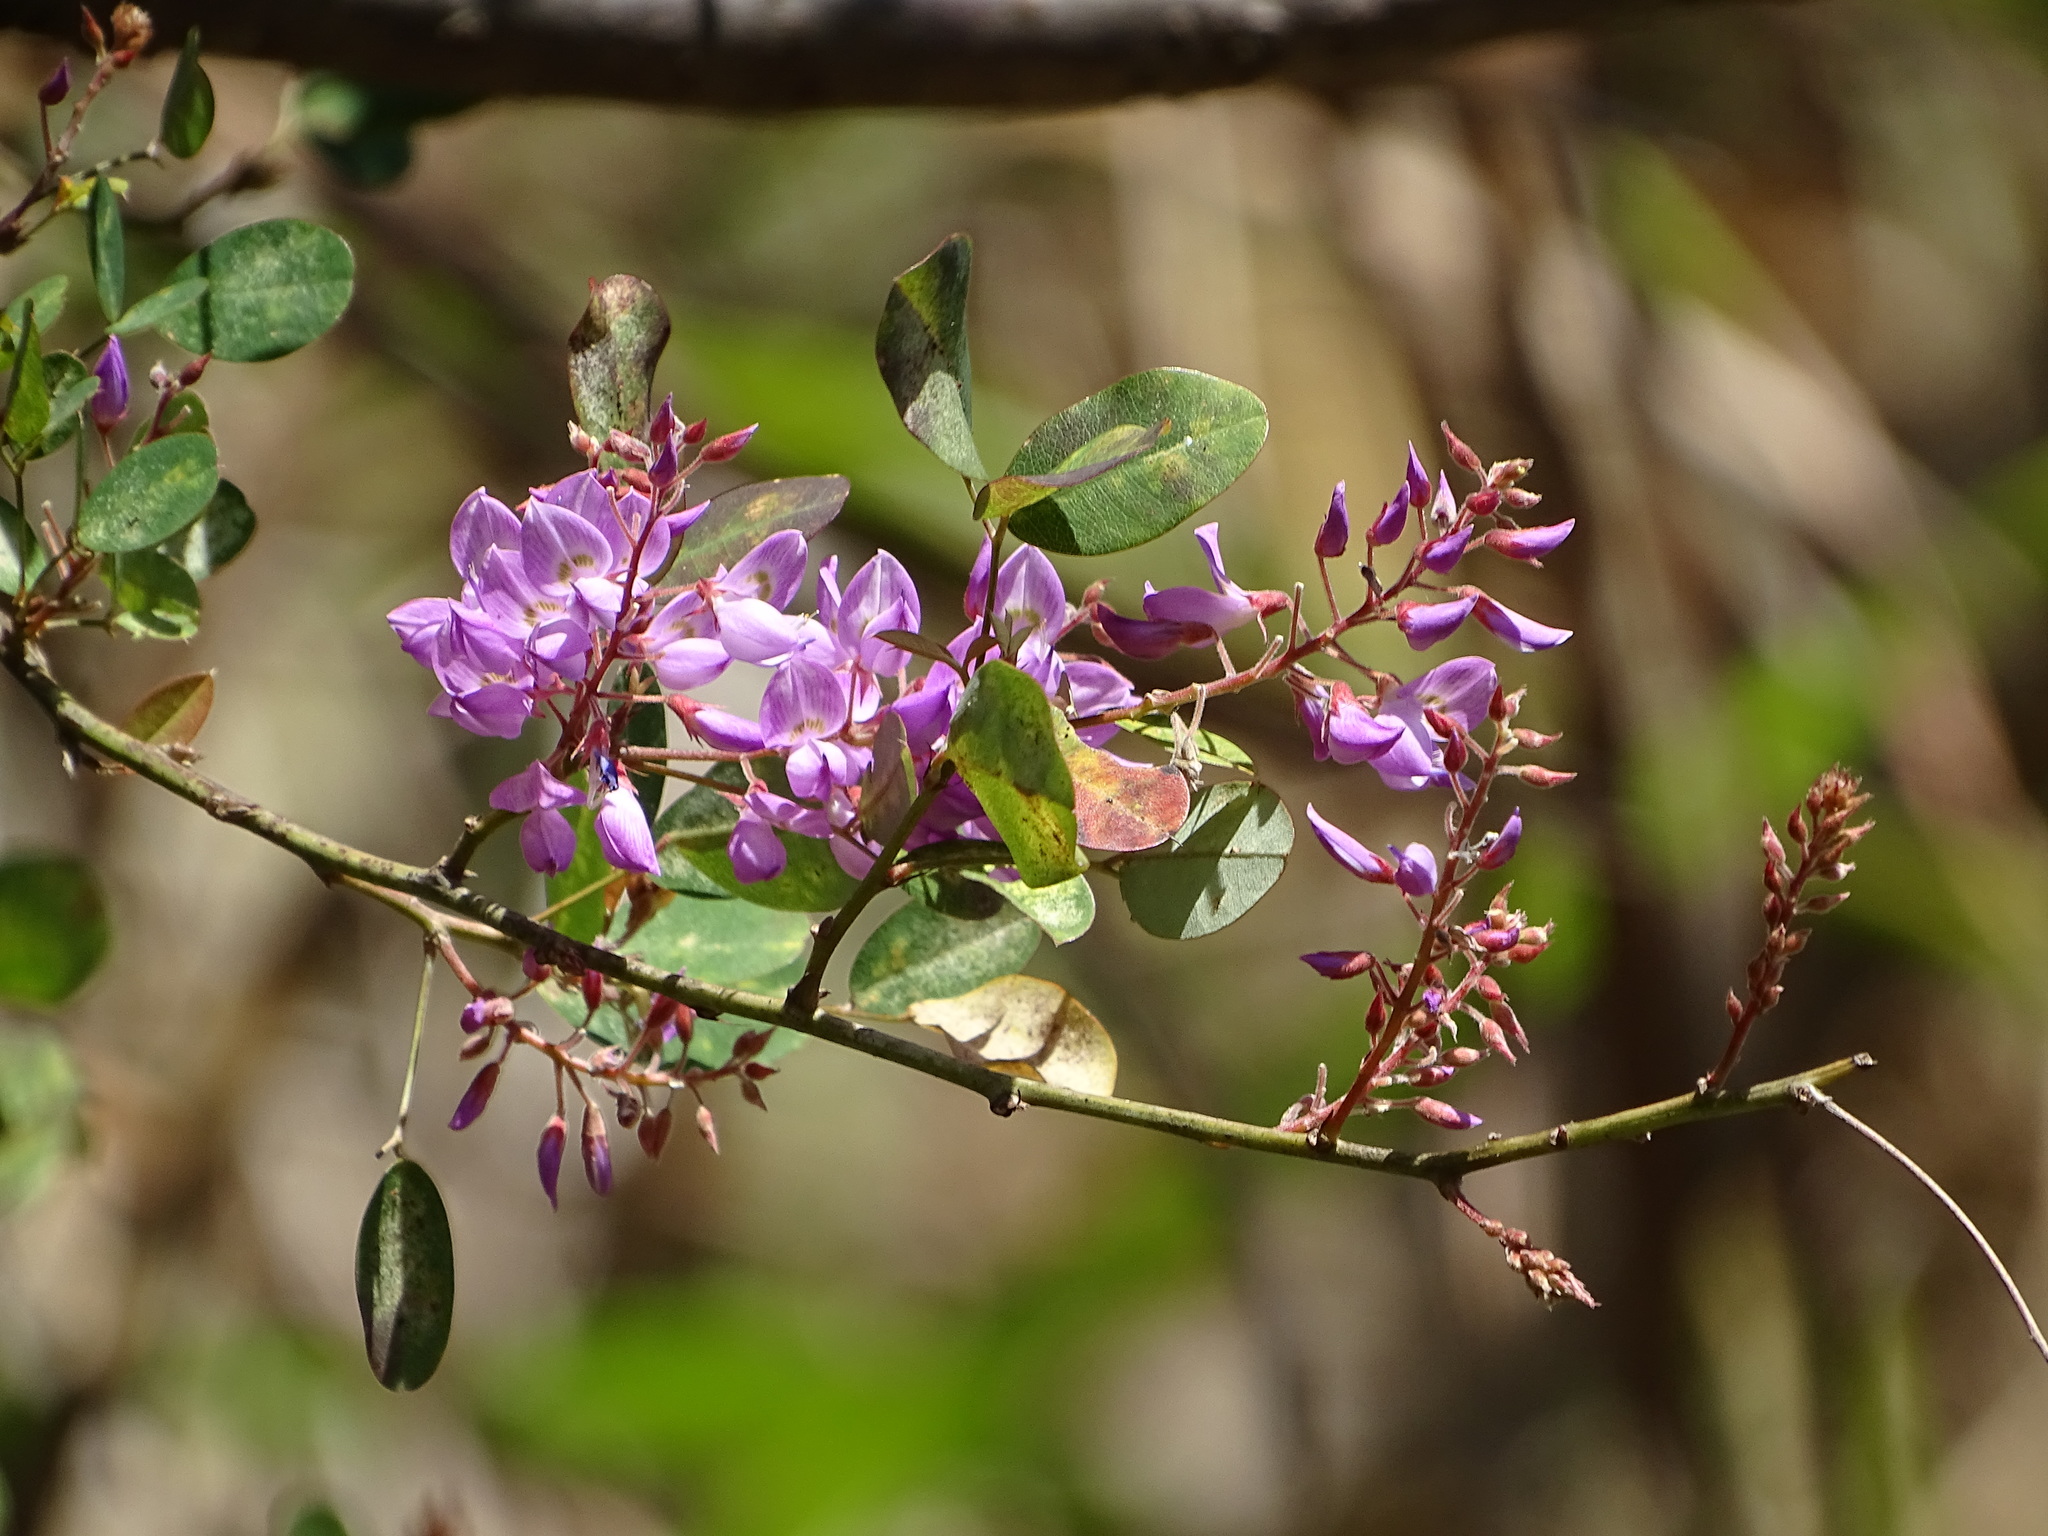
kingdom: Plantae
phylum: Tracheophyta
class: Magnoliopsida
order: Fabales
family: Fabaceae
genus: Campylotropis
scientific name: Campylotropis macrocarpa
